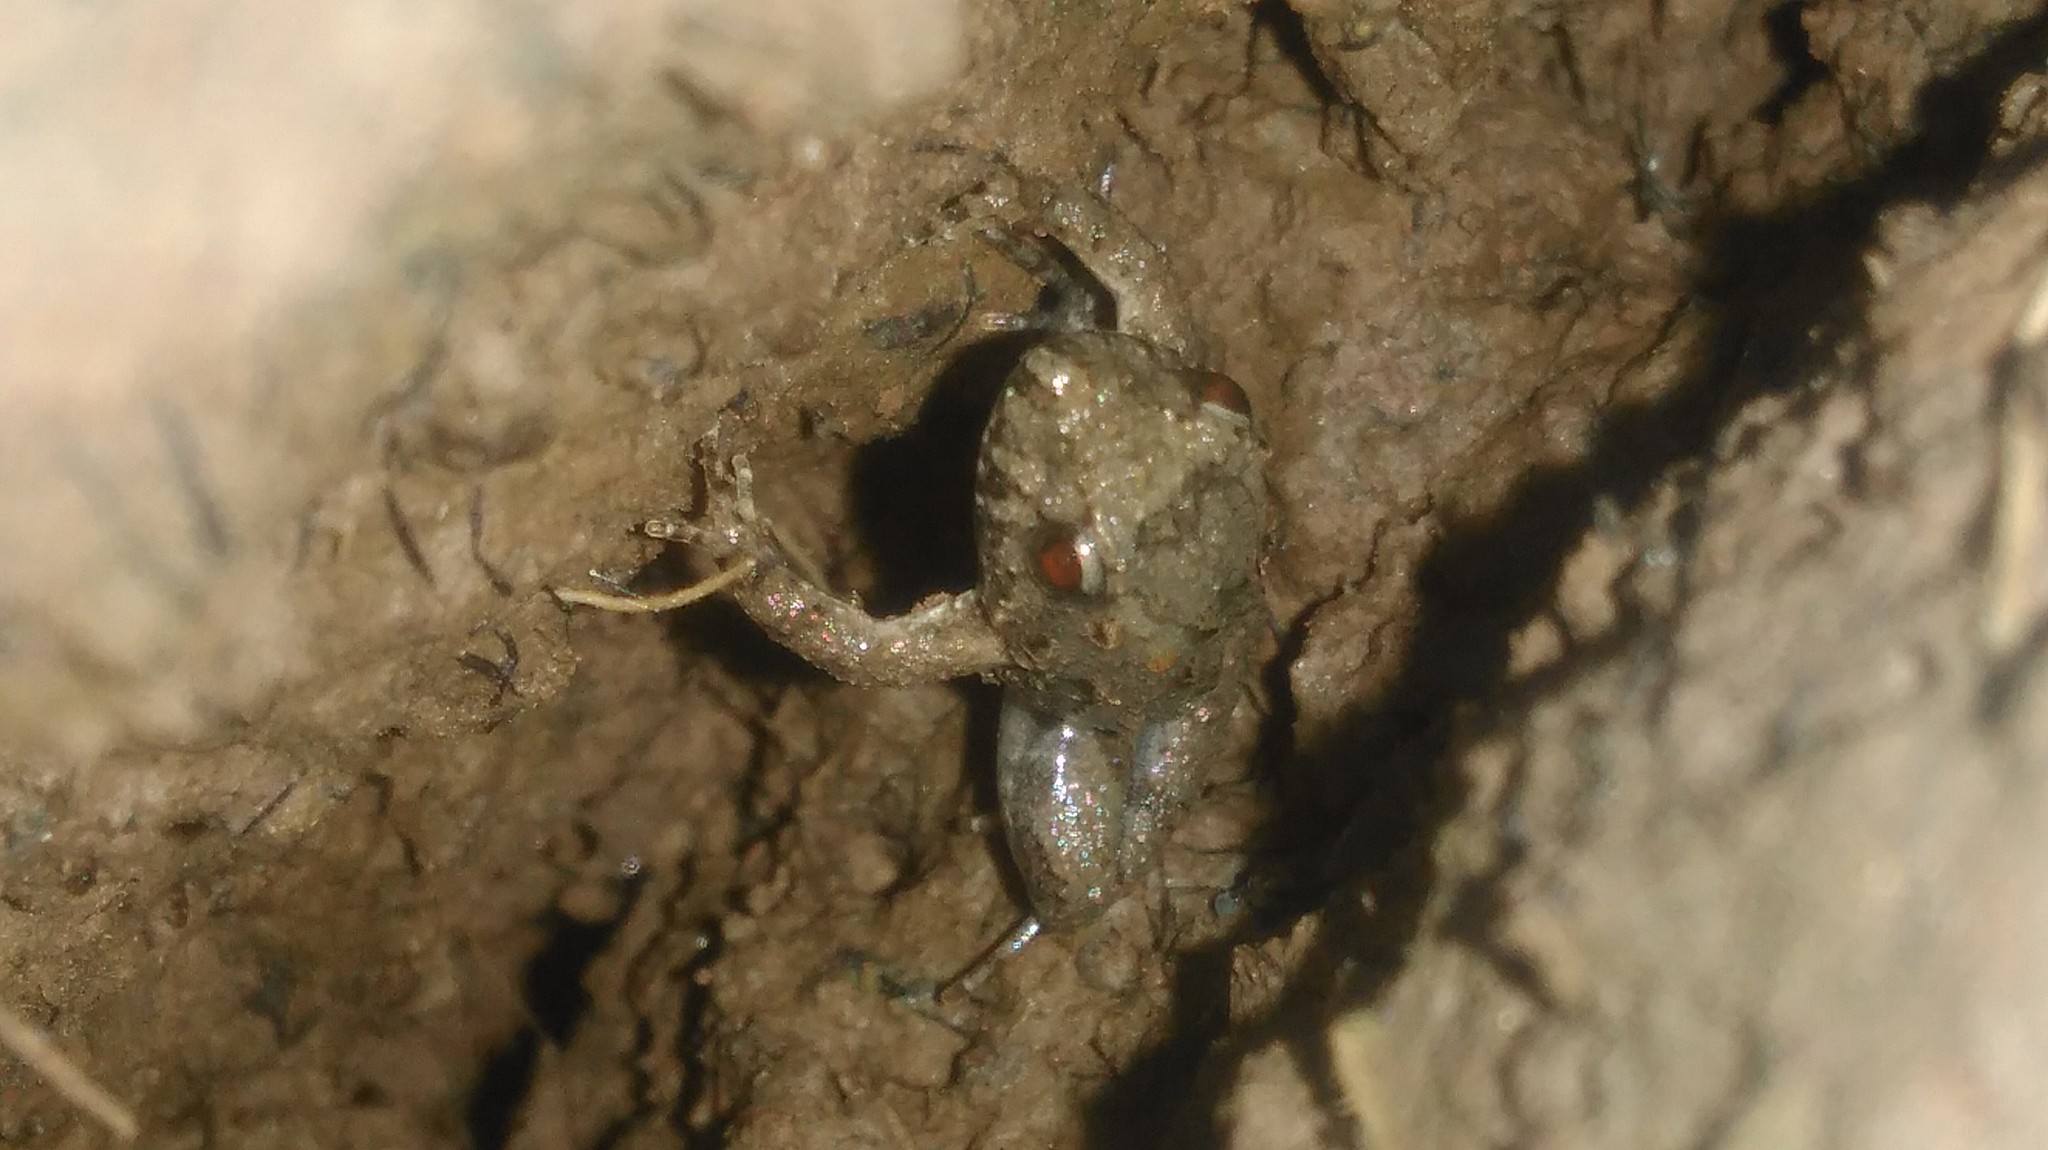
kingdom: Animalia
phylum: Chordata
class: Amphibia
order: Anura
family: Leptodactylidae
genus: Pseudopaludicola
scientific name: Pseudopaludicola falcipes
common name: Hensel’s swamp frog
